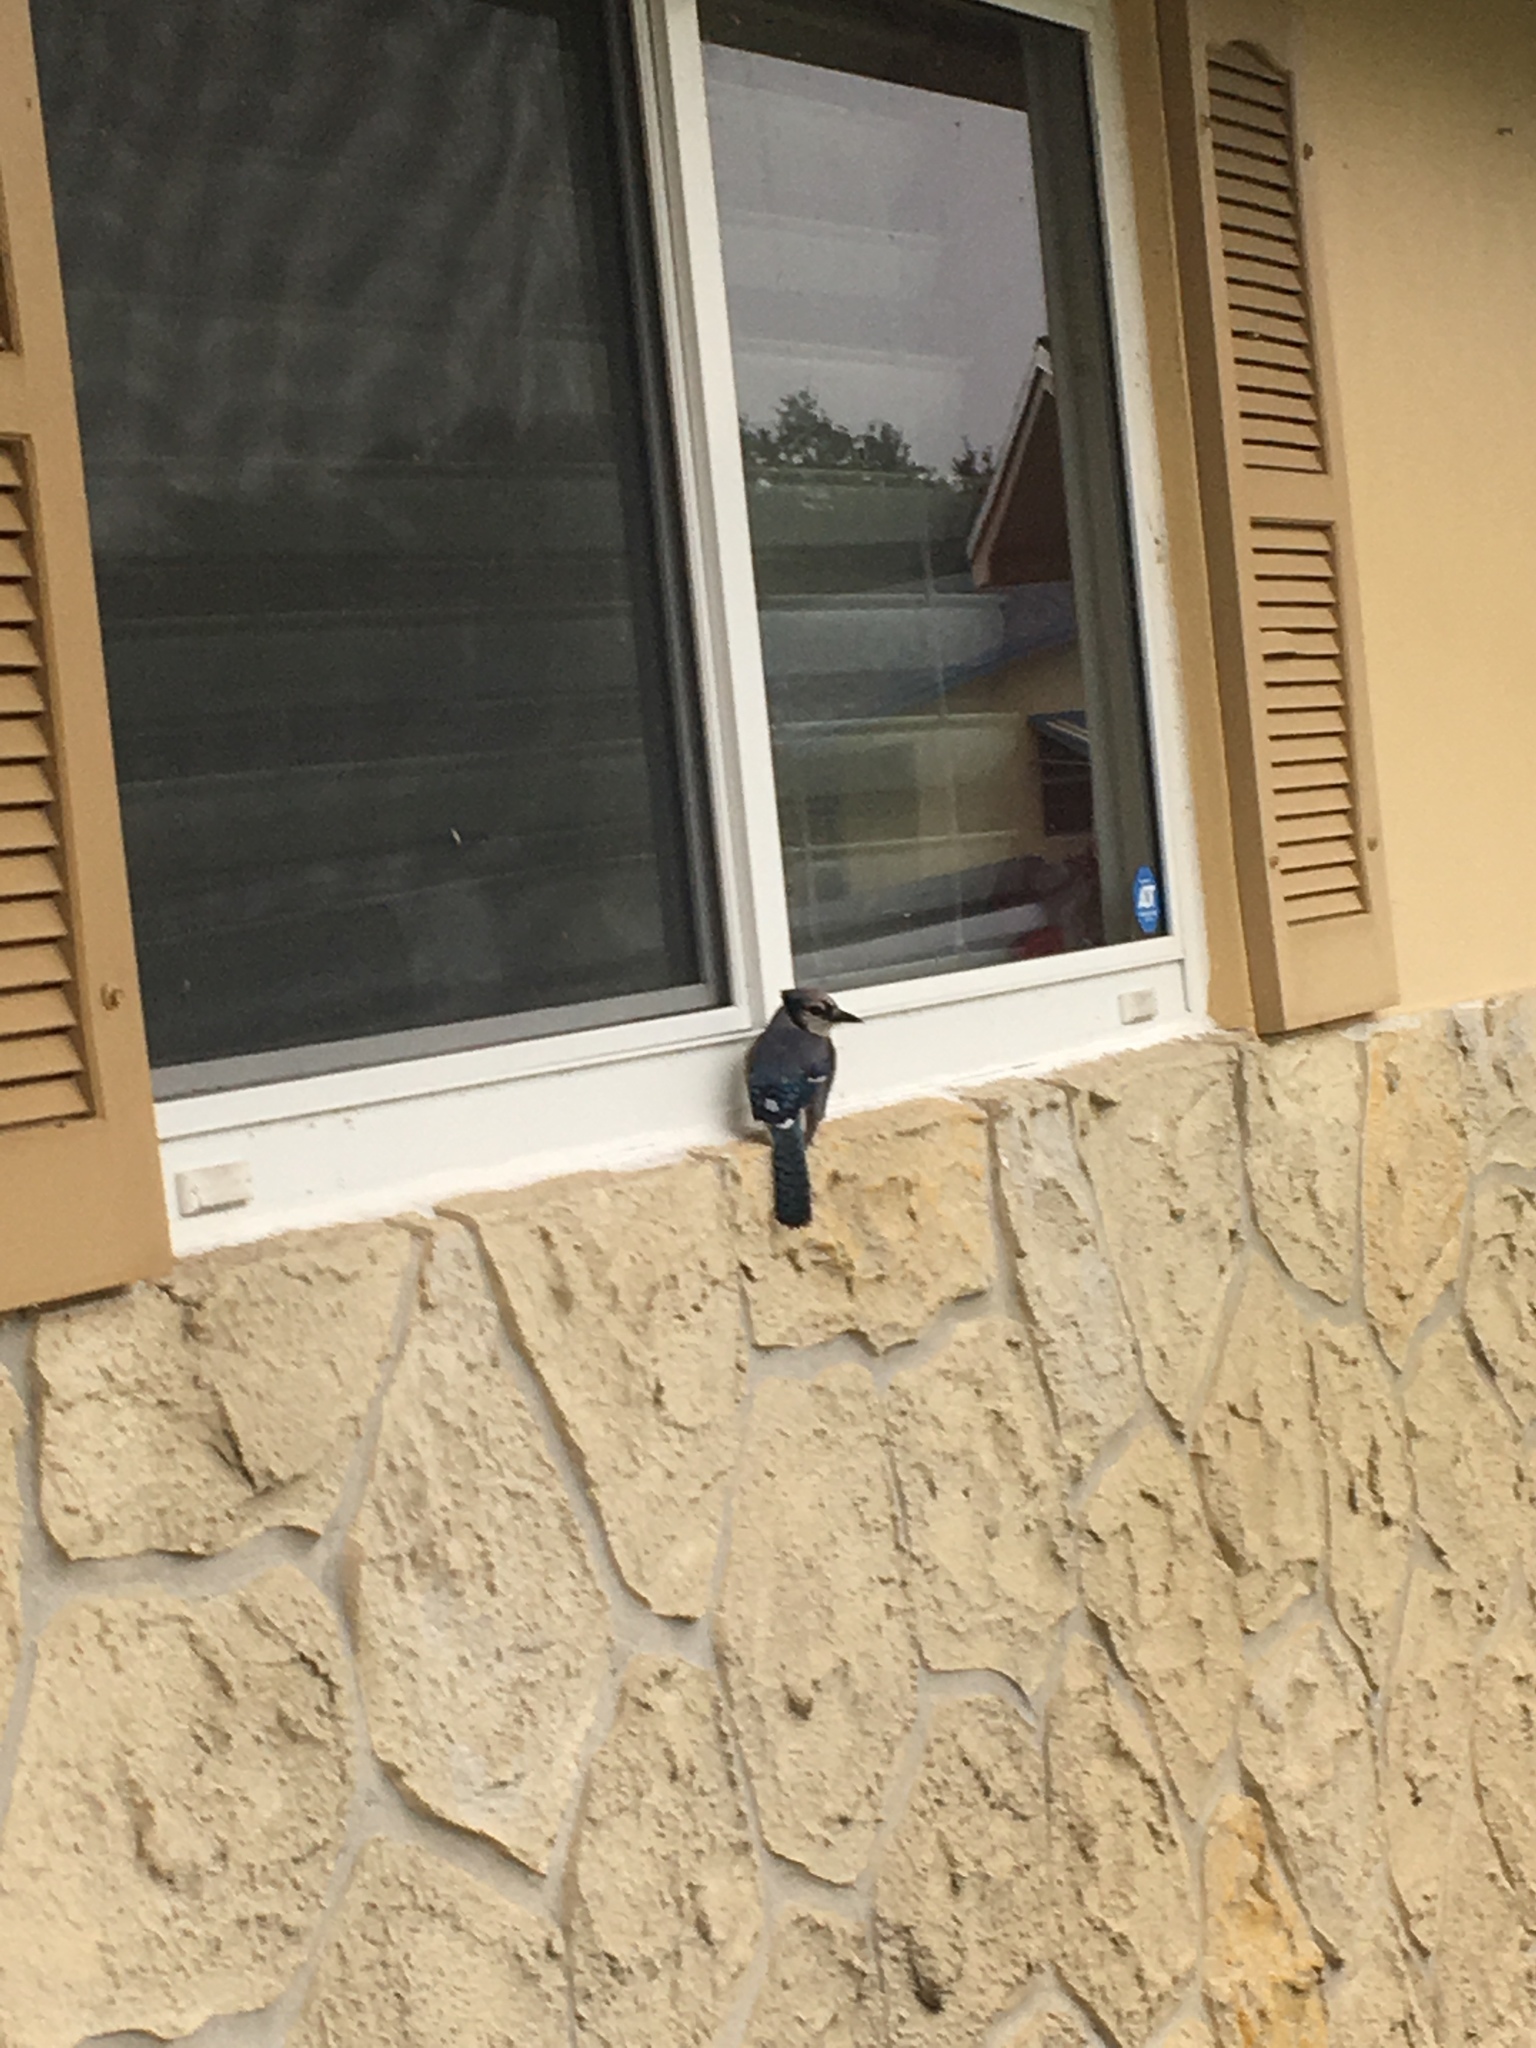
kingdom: Animalia
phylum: Chordata
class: Aves
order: Passeriformes
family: Corvidae
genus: Cyanocitta
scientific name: Cyanocitta cristata
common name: Blue jay
